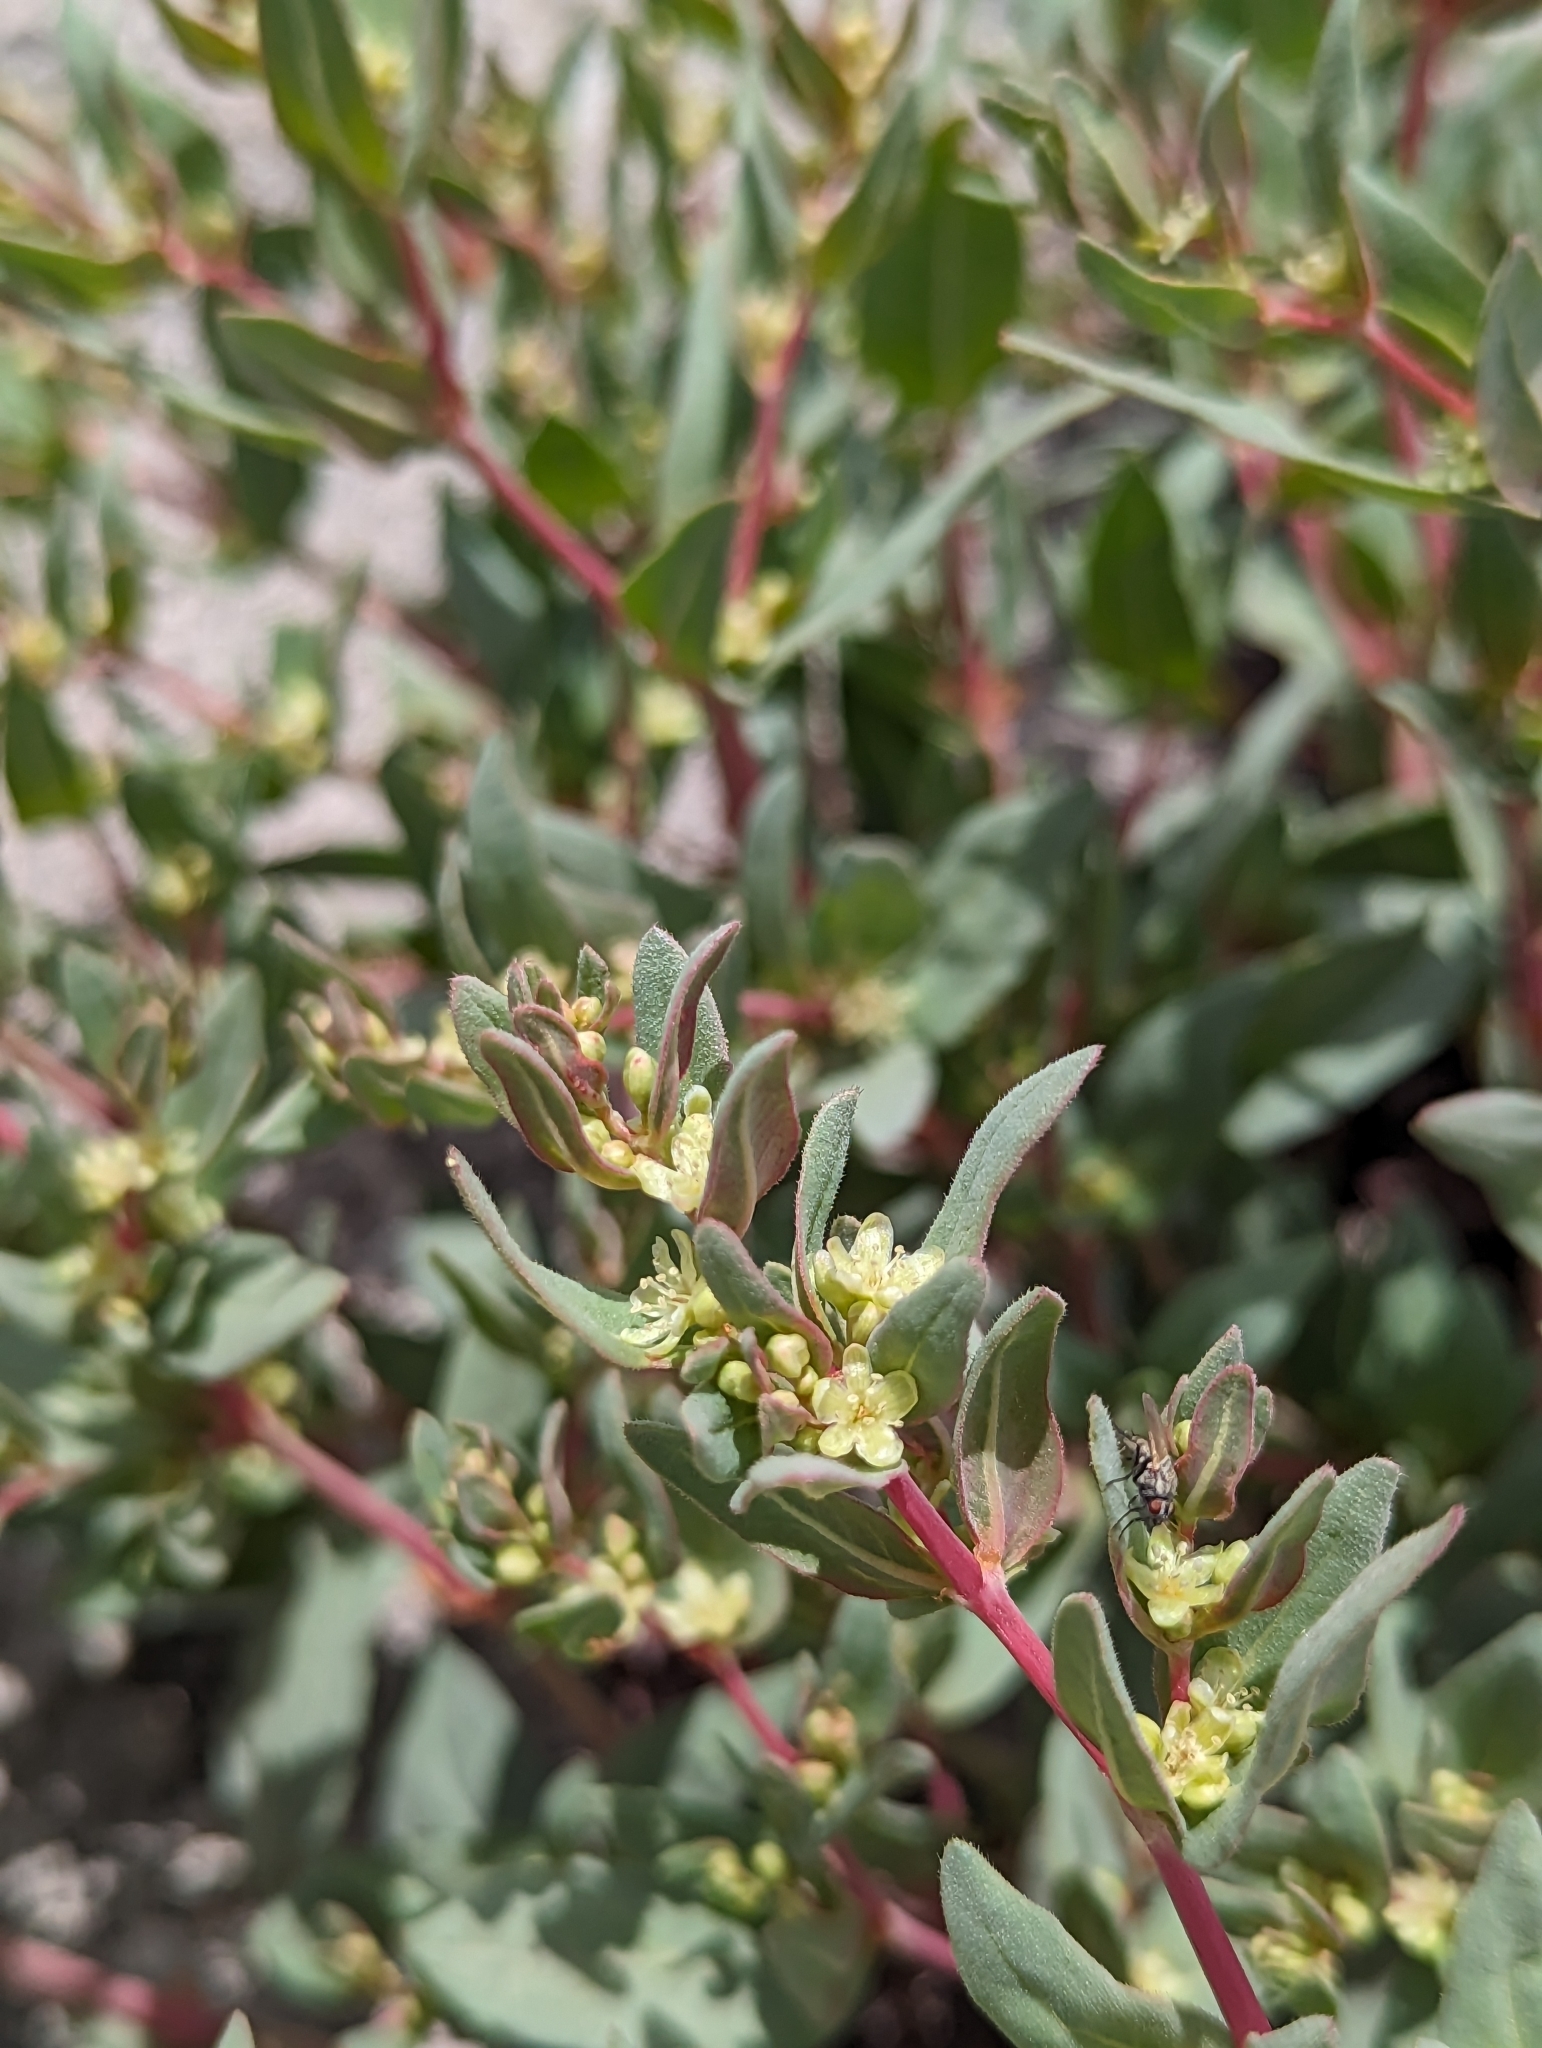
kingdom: Plantae
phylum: Tracheophyta
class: Magnoliopsida
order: Caryophyllales
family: Polygonaceae
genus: Koenigia
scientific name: Koenigia davisiae
